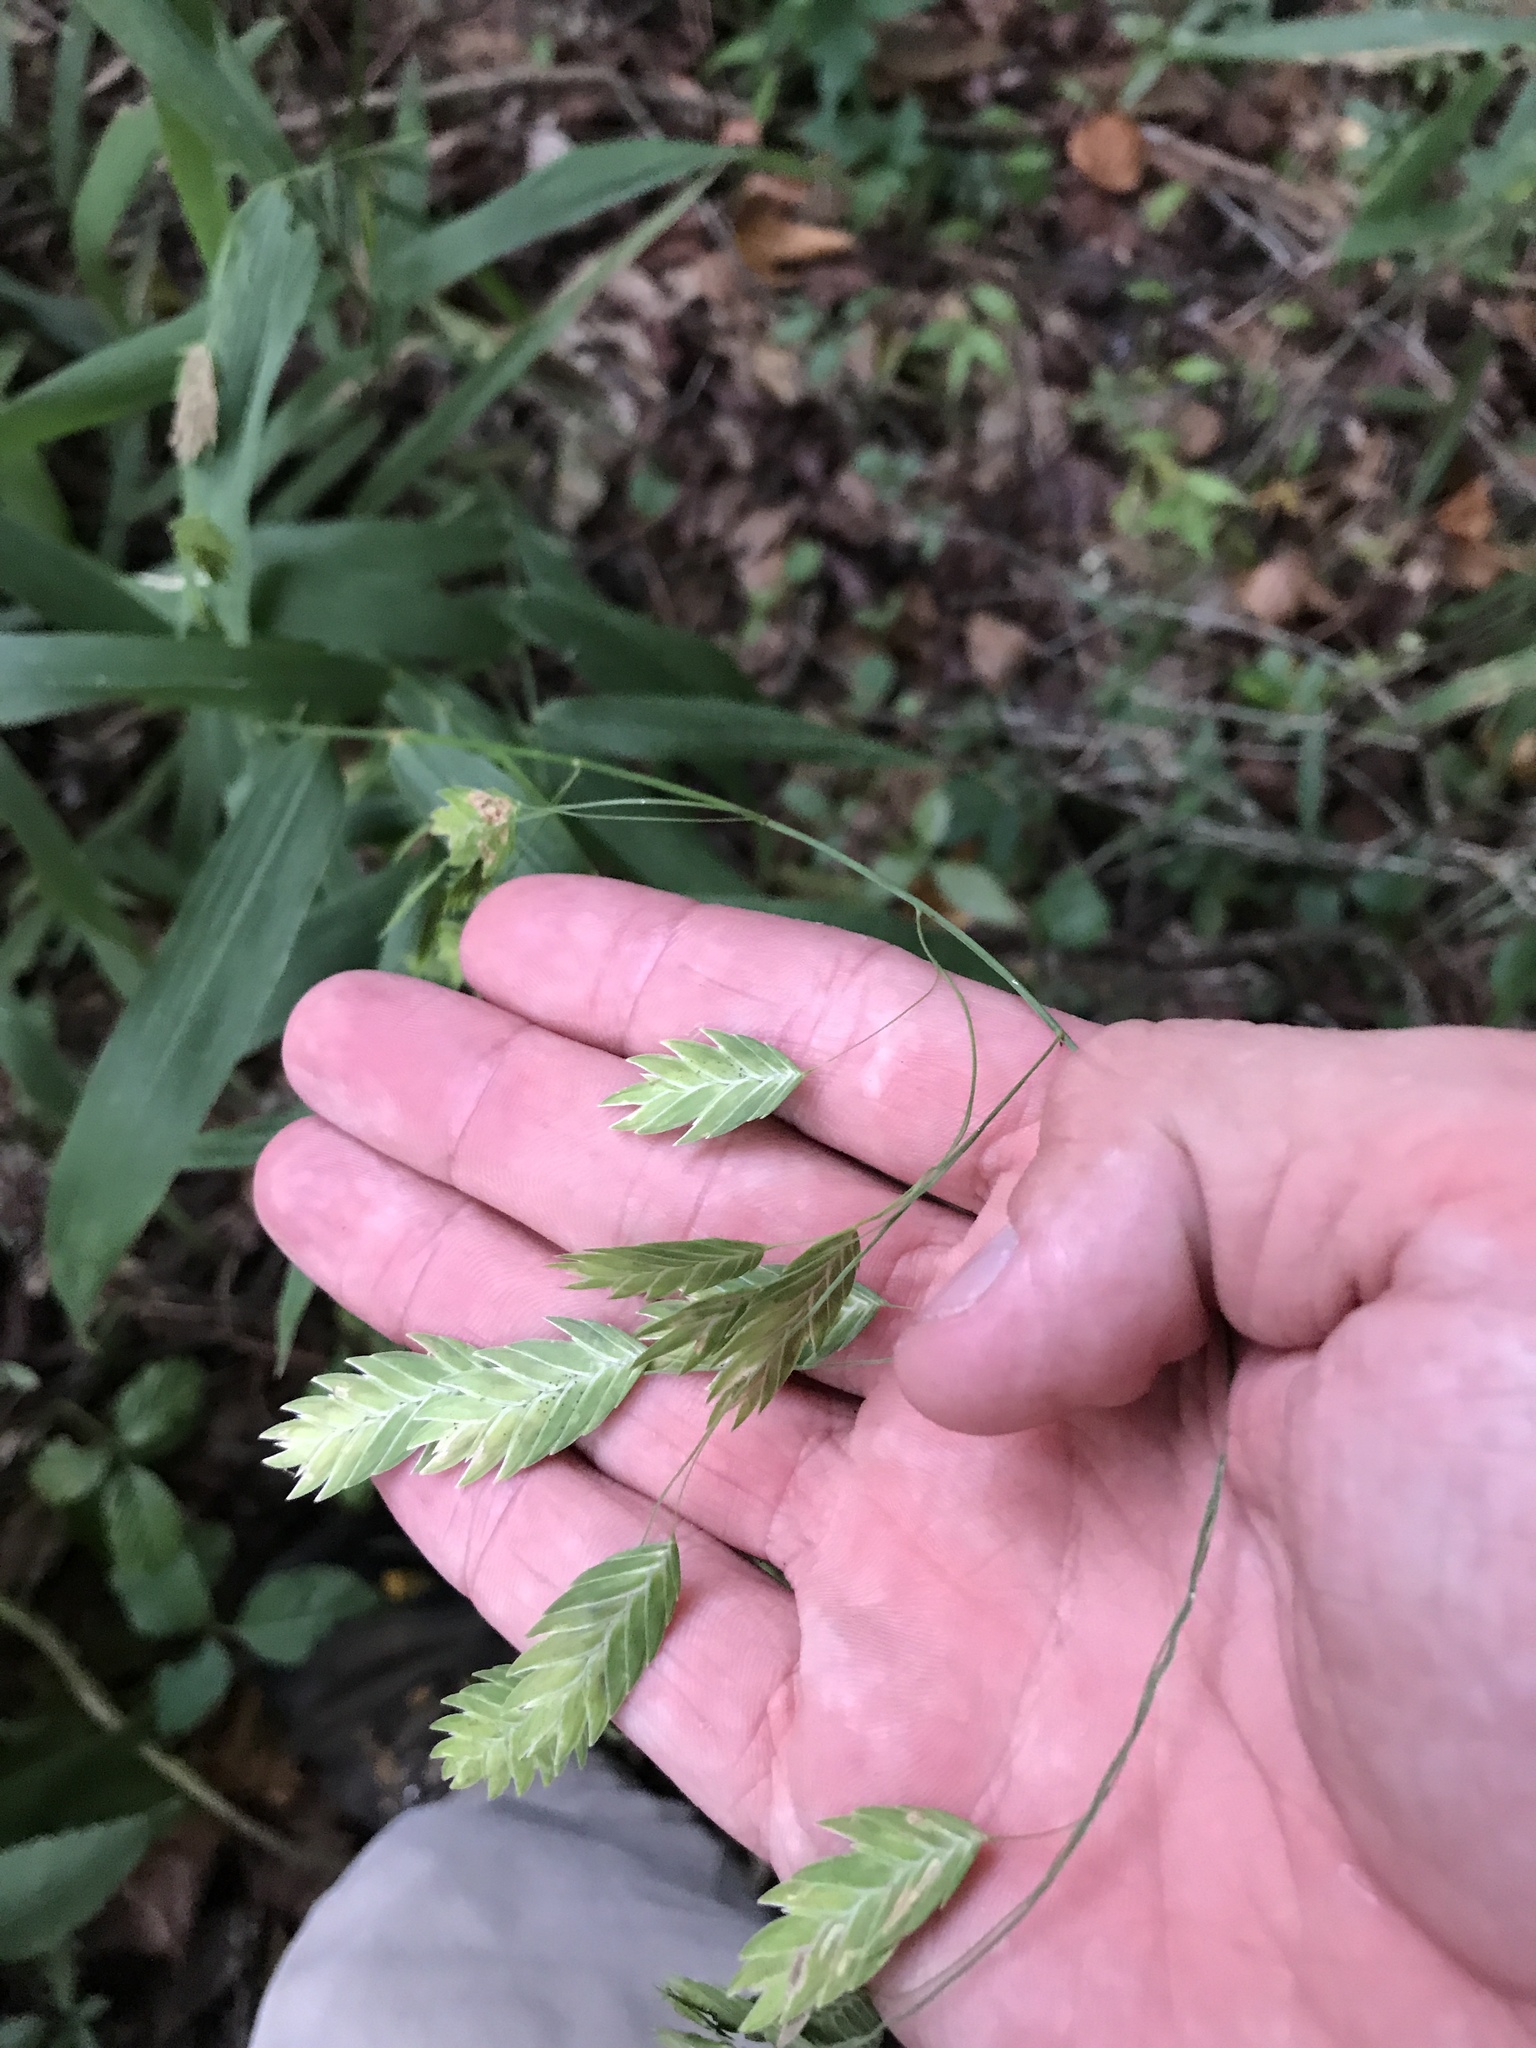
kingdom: Plantae
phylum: Tracheophyta
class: Liliopsida
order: Poales
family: Poaceae
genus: Chasmanthium
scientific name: Chasmanthium latifolium
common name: Broad-leaved chasmanthium
